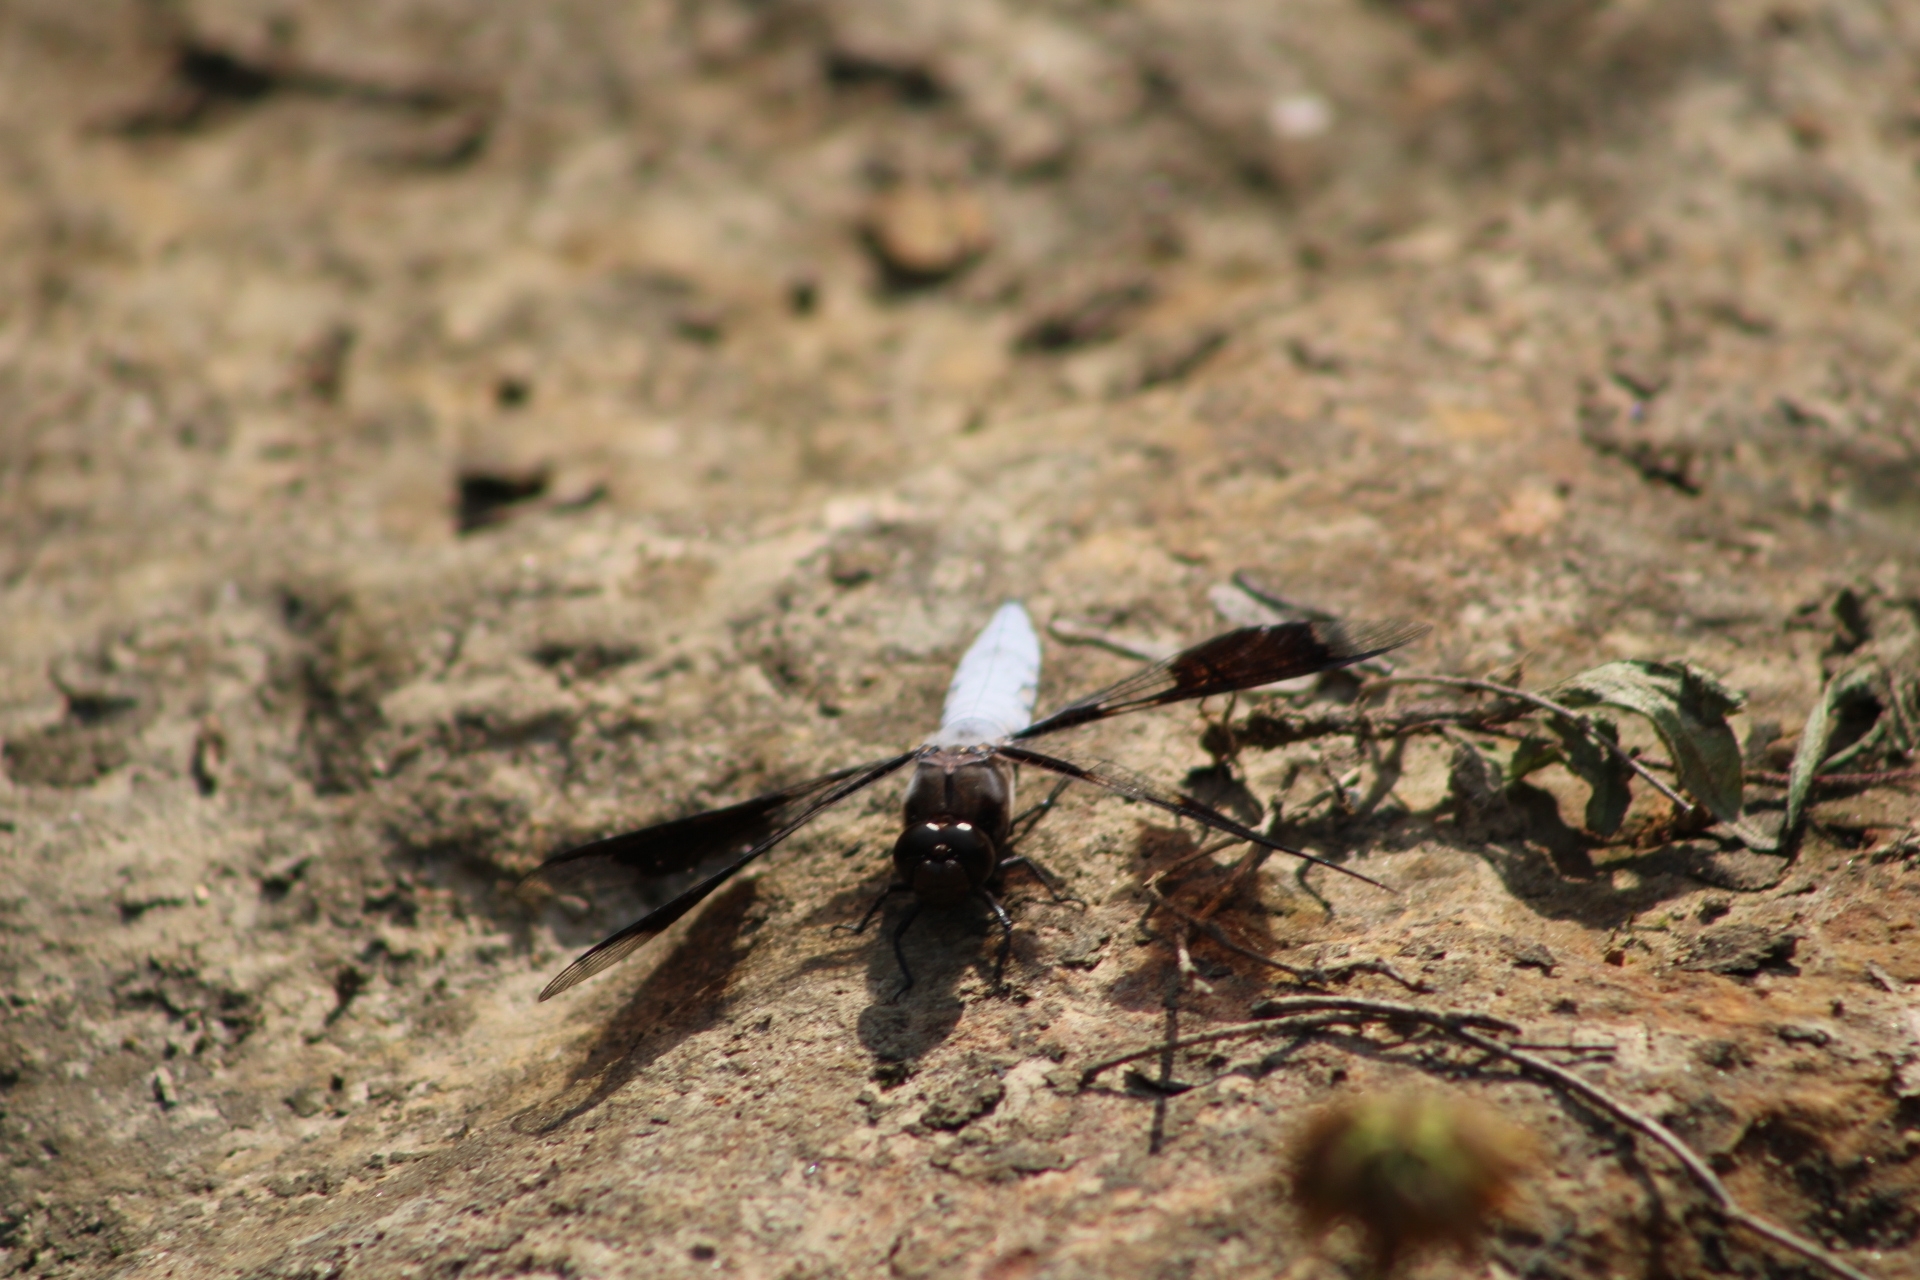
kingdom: Animalia
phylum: Arthropoda
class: Insecta
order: Odonata
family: Libellulidae
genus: Plathemis
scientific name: Plathemis lydia
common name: Common whitetail
